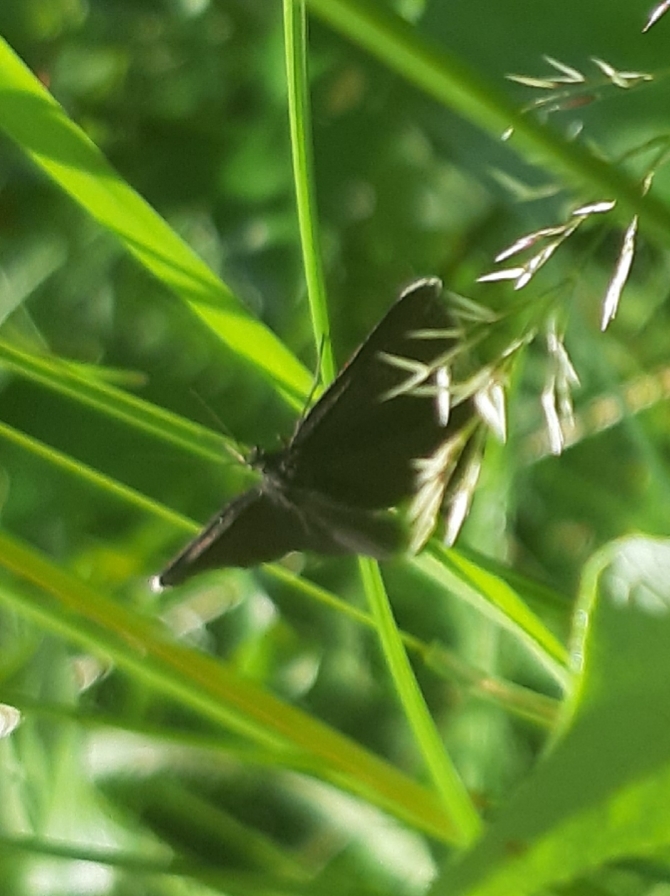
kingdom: Animalia
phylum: Arthropoda
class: Insecta
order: Lepidoptera
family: Geometridae
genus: Odezia
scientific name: Odezia atrata
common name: Chimney sweeper
